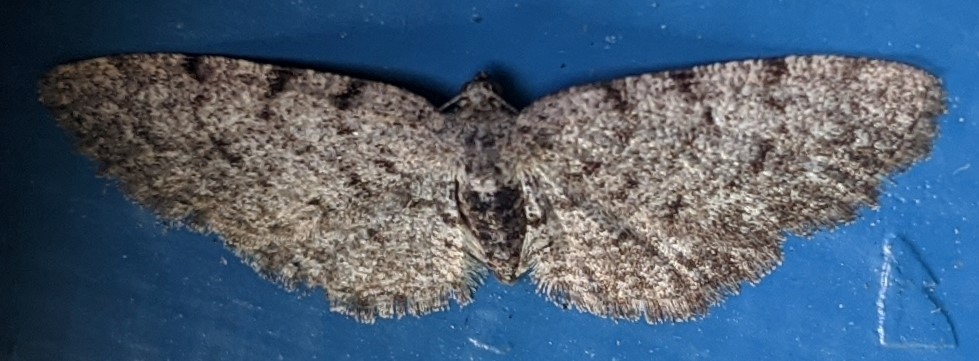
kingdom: Animalia
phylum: Arthropoda
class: Insecta
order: Lepidoptera
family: Geometridae
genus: Aethalura
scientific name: Aethalura intertexta
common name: Four-barred gray
